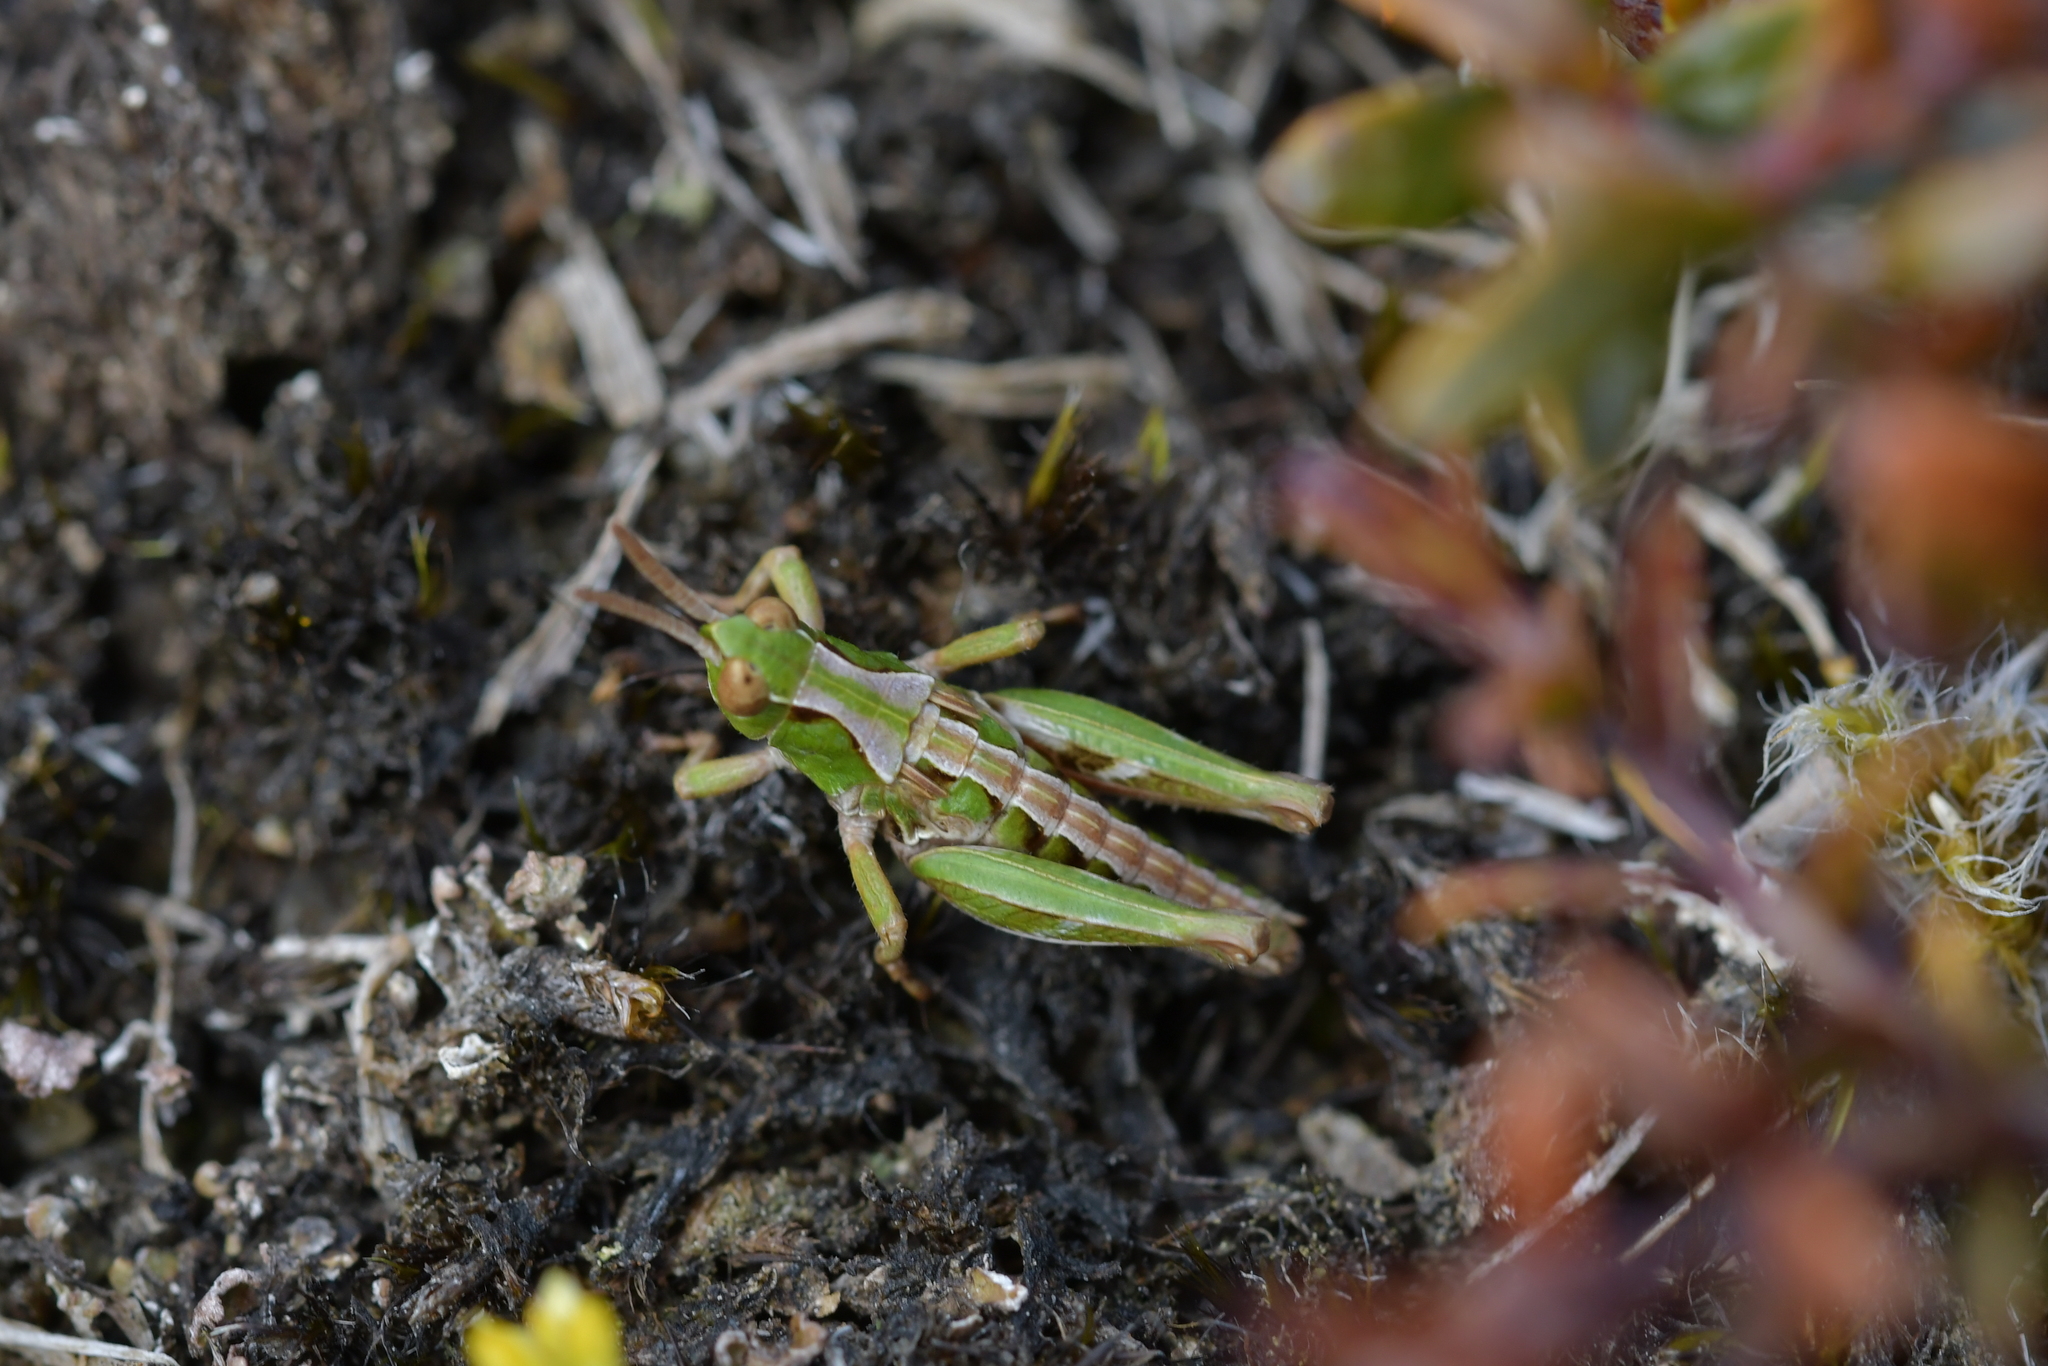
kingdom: Animalia
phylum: Arthropoda
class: Insecta
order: Orthoptera
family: Acrididae
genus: Sigaus
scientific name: Sigaus campestris
